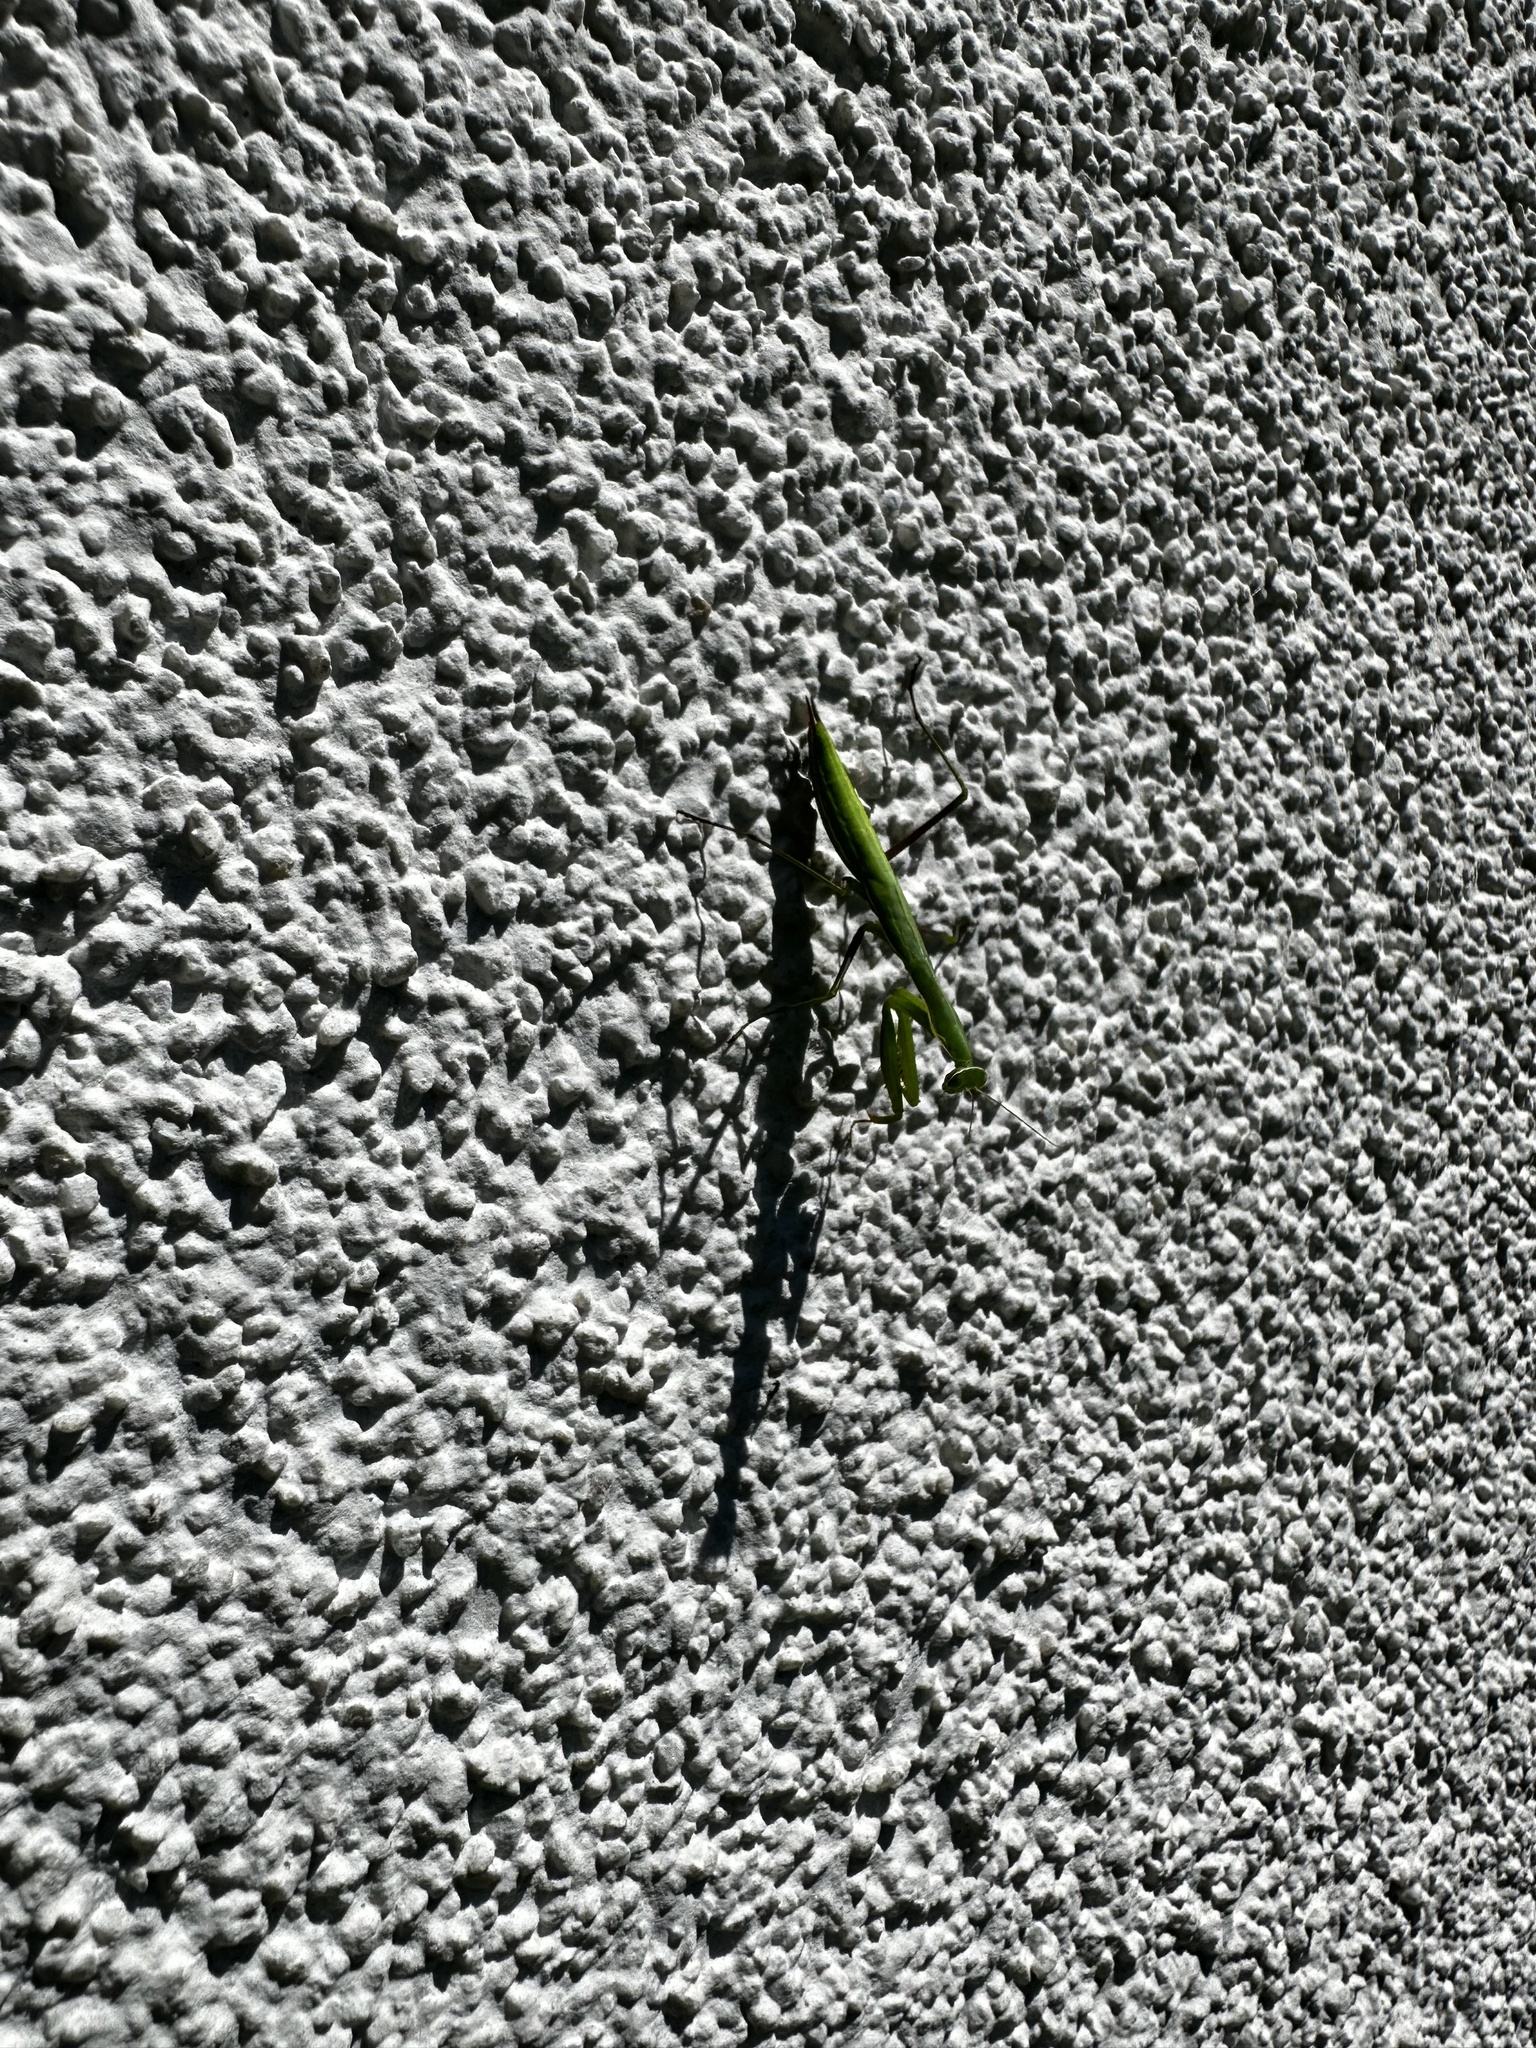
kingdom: Animalia
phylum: Arthropoda
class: Insecta
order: Mantodea
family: Mantidae
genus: Mantis
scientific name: Mantis religiosa
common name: Praying mantis
